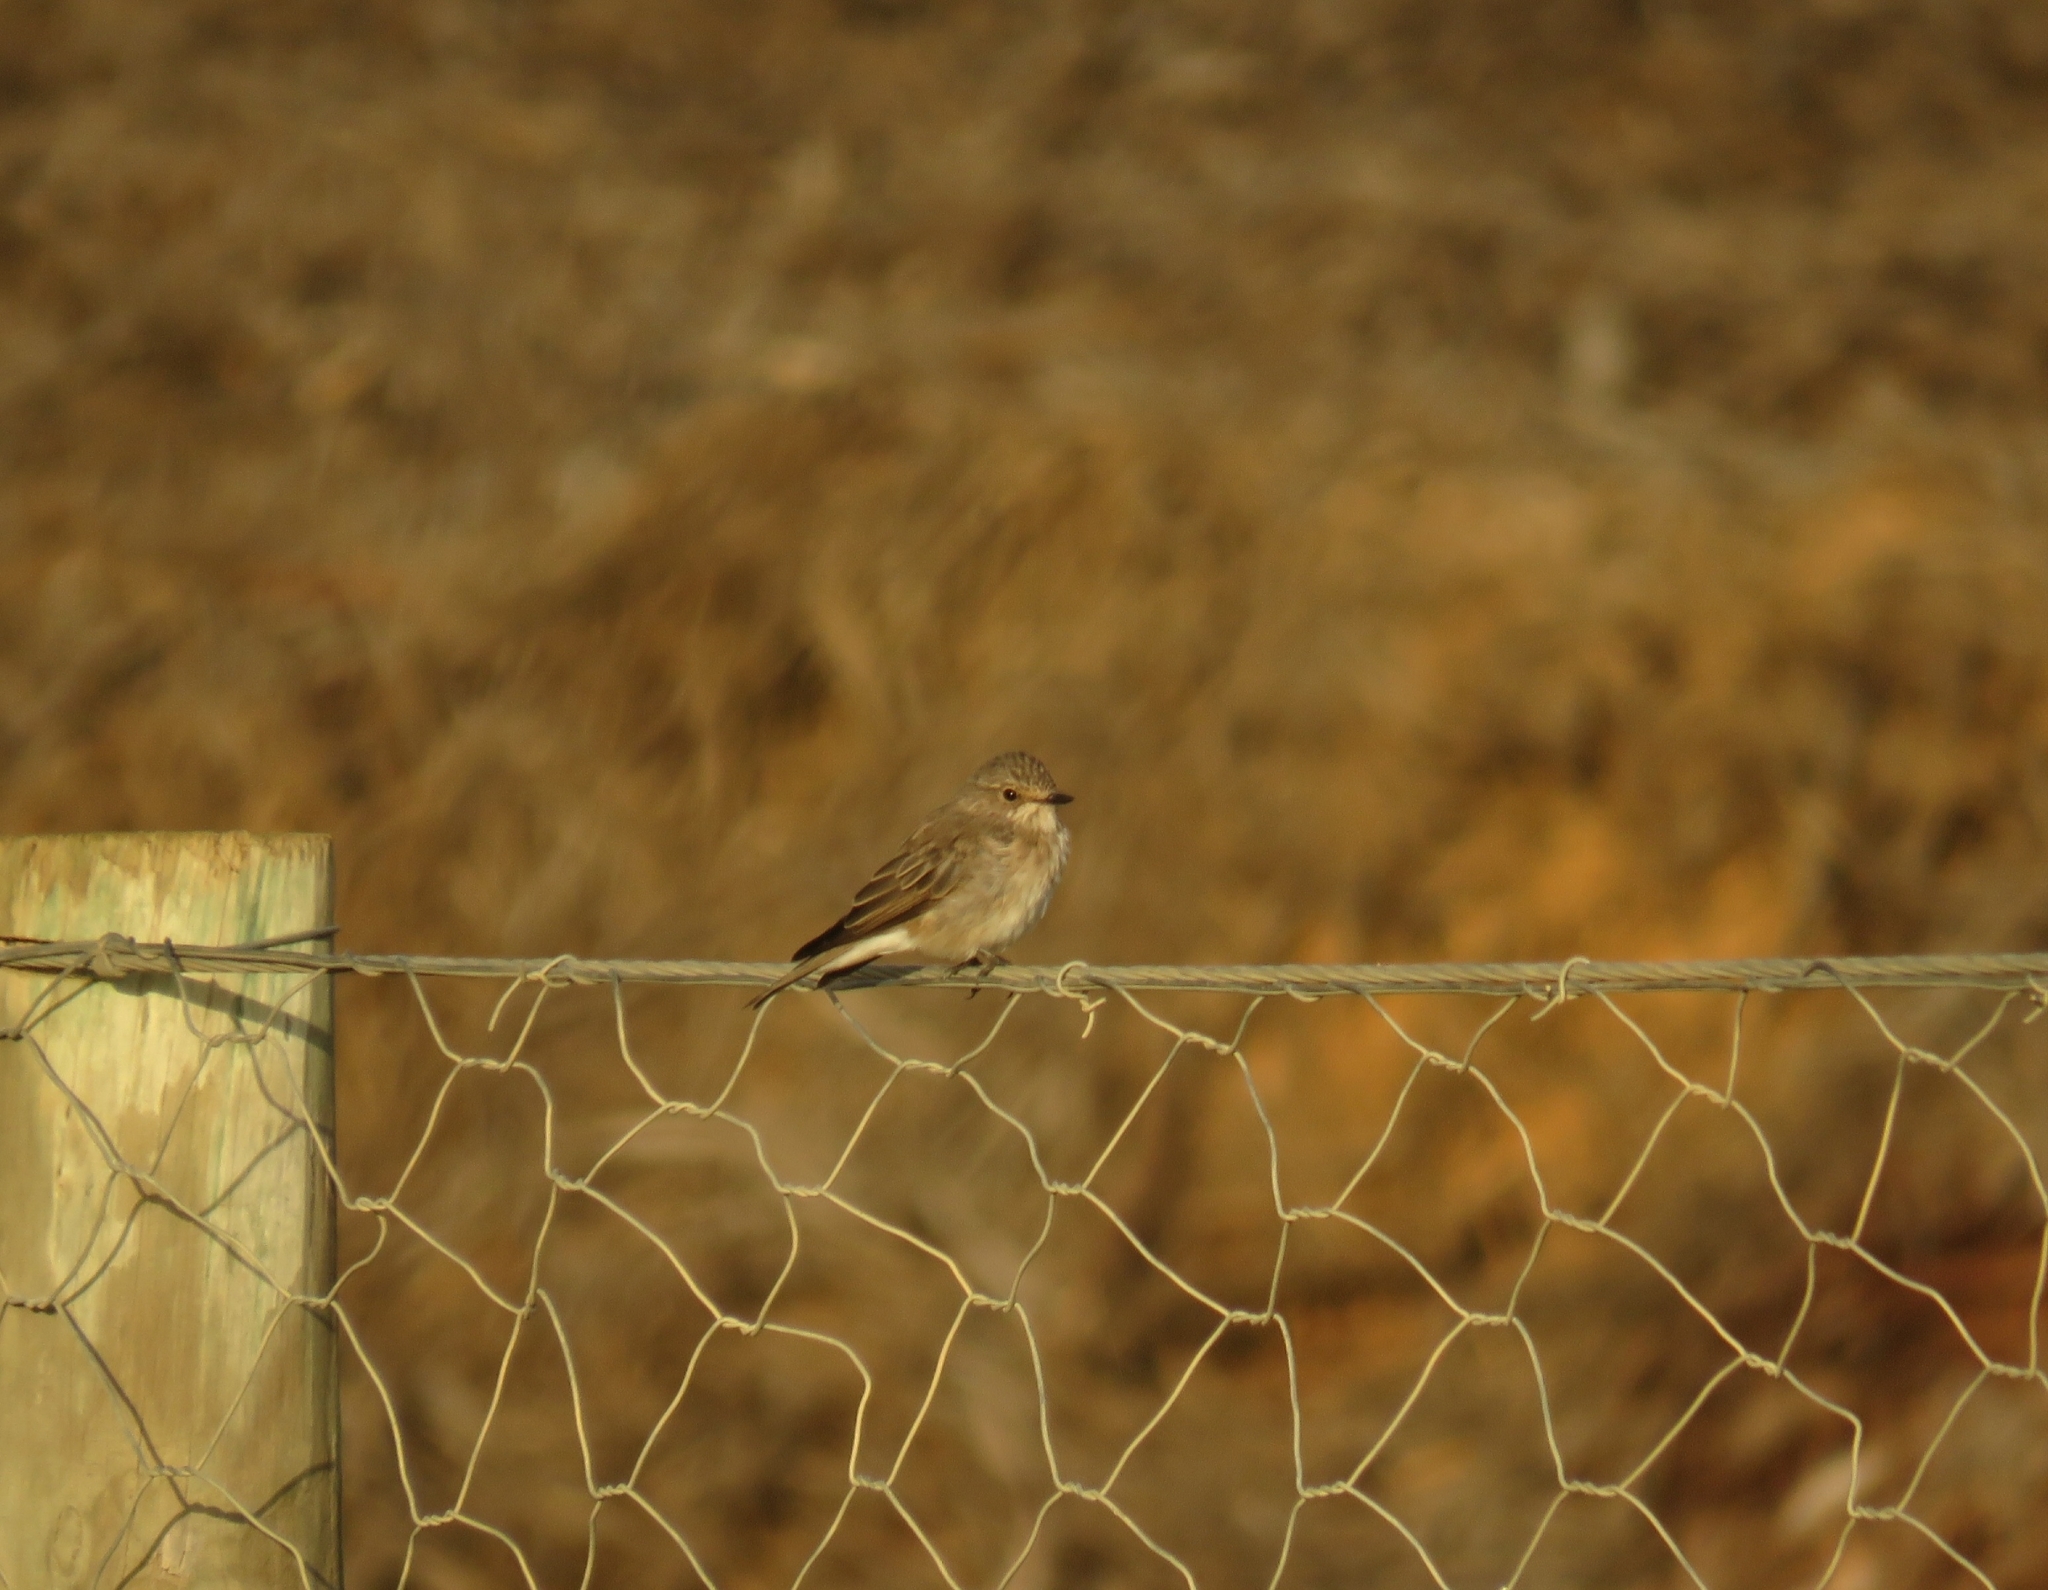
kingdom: Animalia
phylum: Chordata
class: Aves
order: Passeriformes
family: Muscicapidae
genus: Muscicapa
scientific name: Muscicapa striata
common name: Spotted flycatcher
